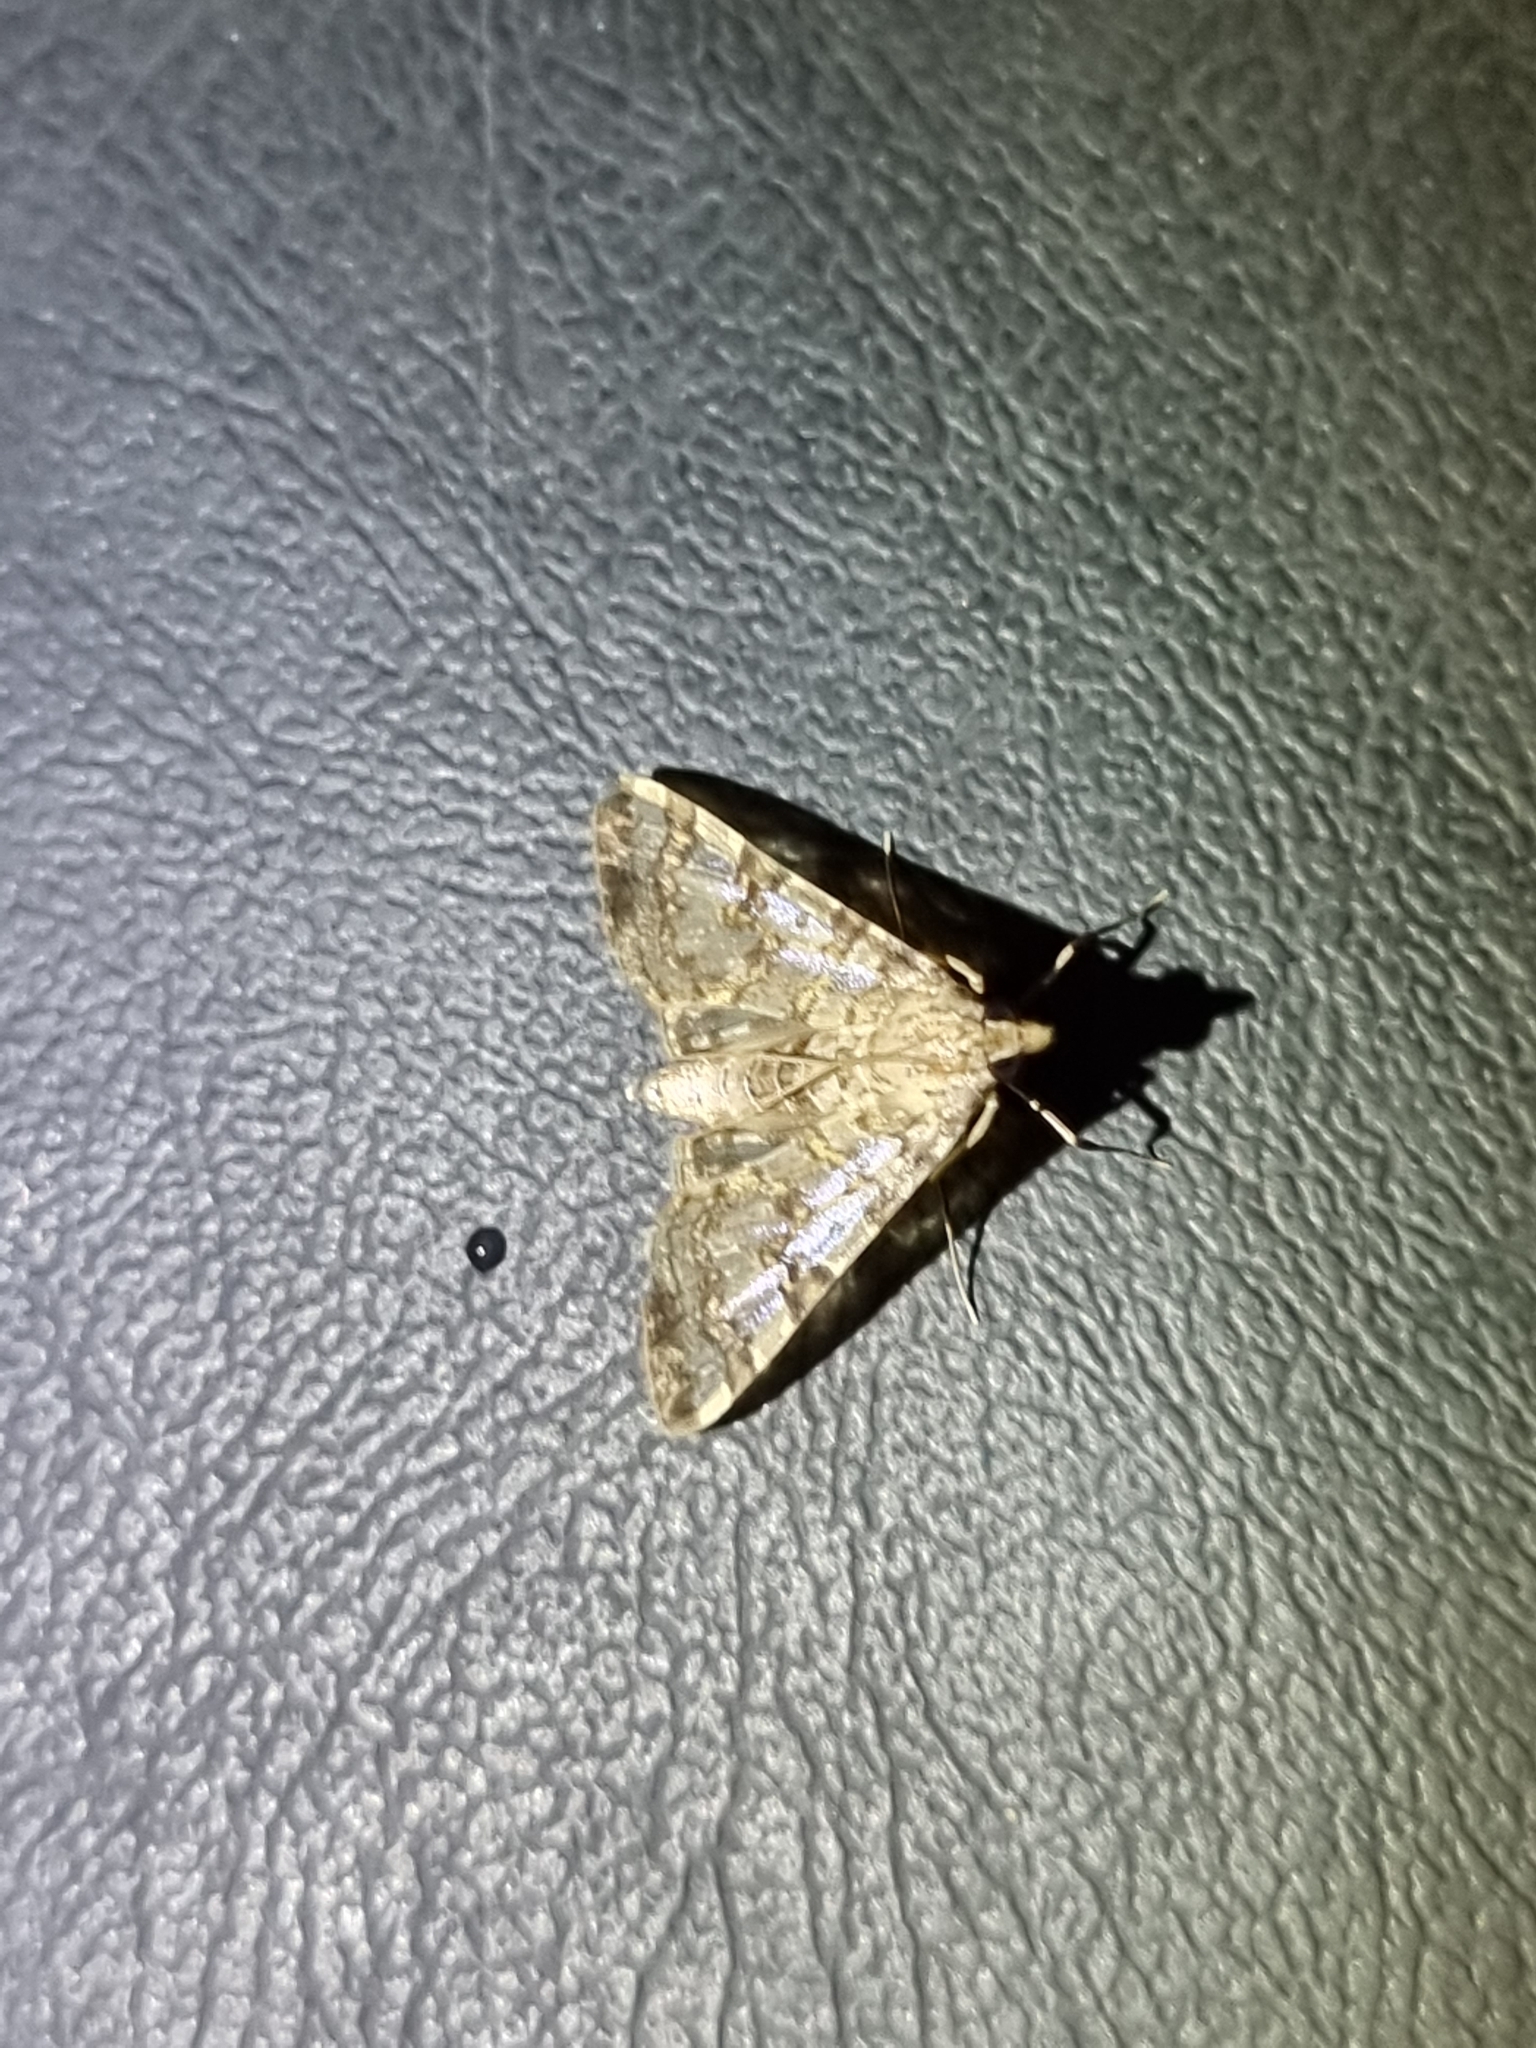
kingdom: Animalia
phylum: Arthropoda
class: Insecta
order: Lepidoptera
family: Crambidae
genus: Dysallacta
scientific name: Dysallacta negatalis
